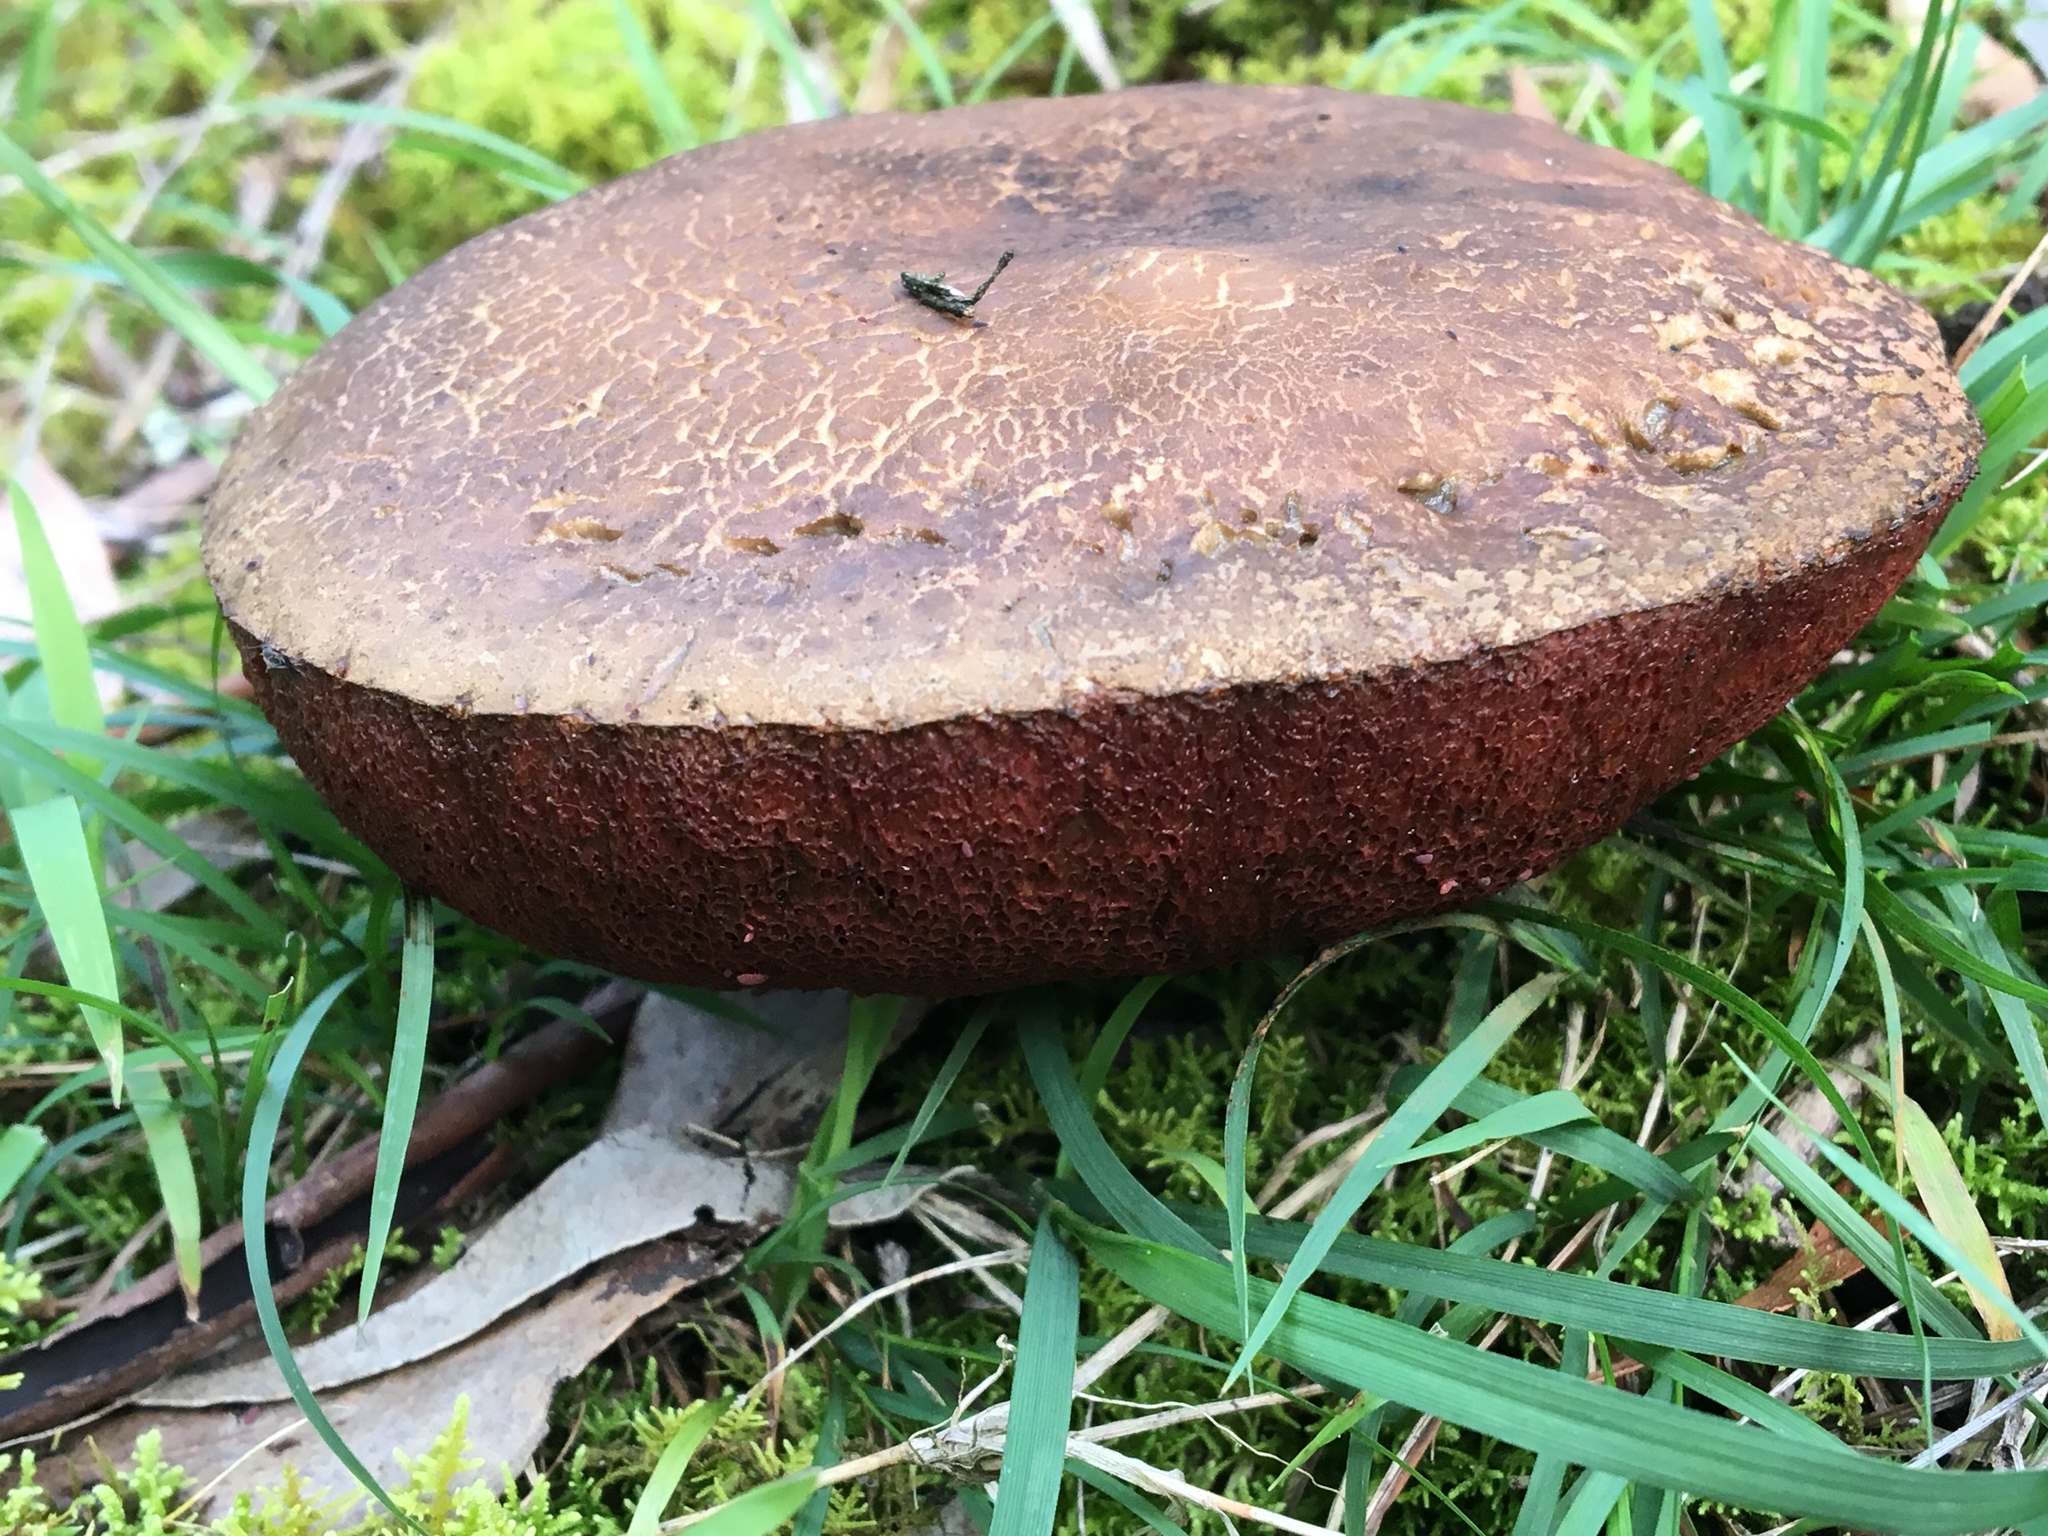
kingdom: Fungi
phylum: Basidiomycota
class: Agaricomycetes
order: Boletales
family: Boletaceae
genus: Boletus
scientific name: Boletus barragensis
